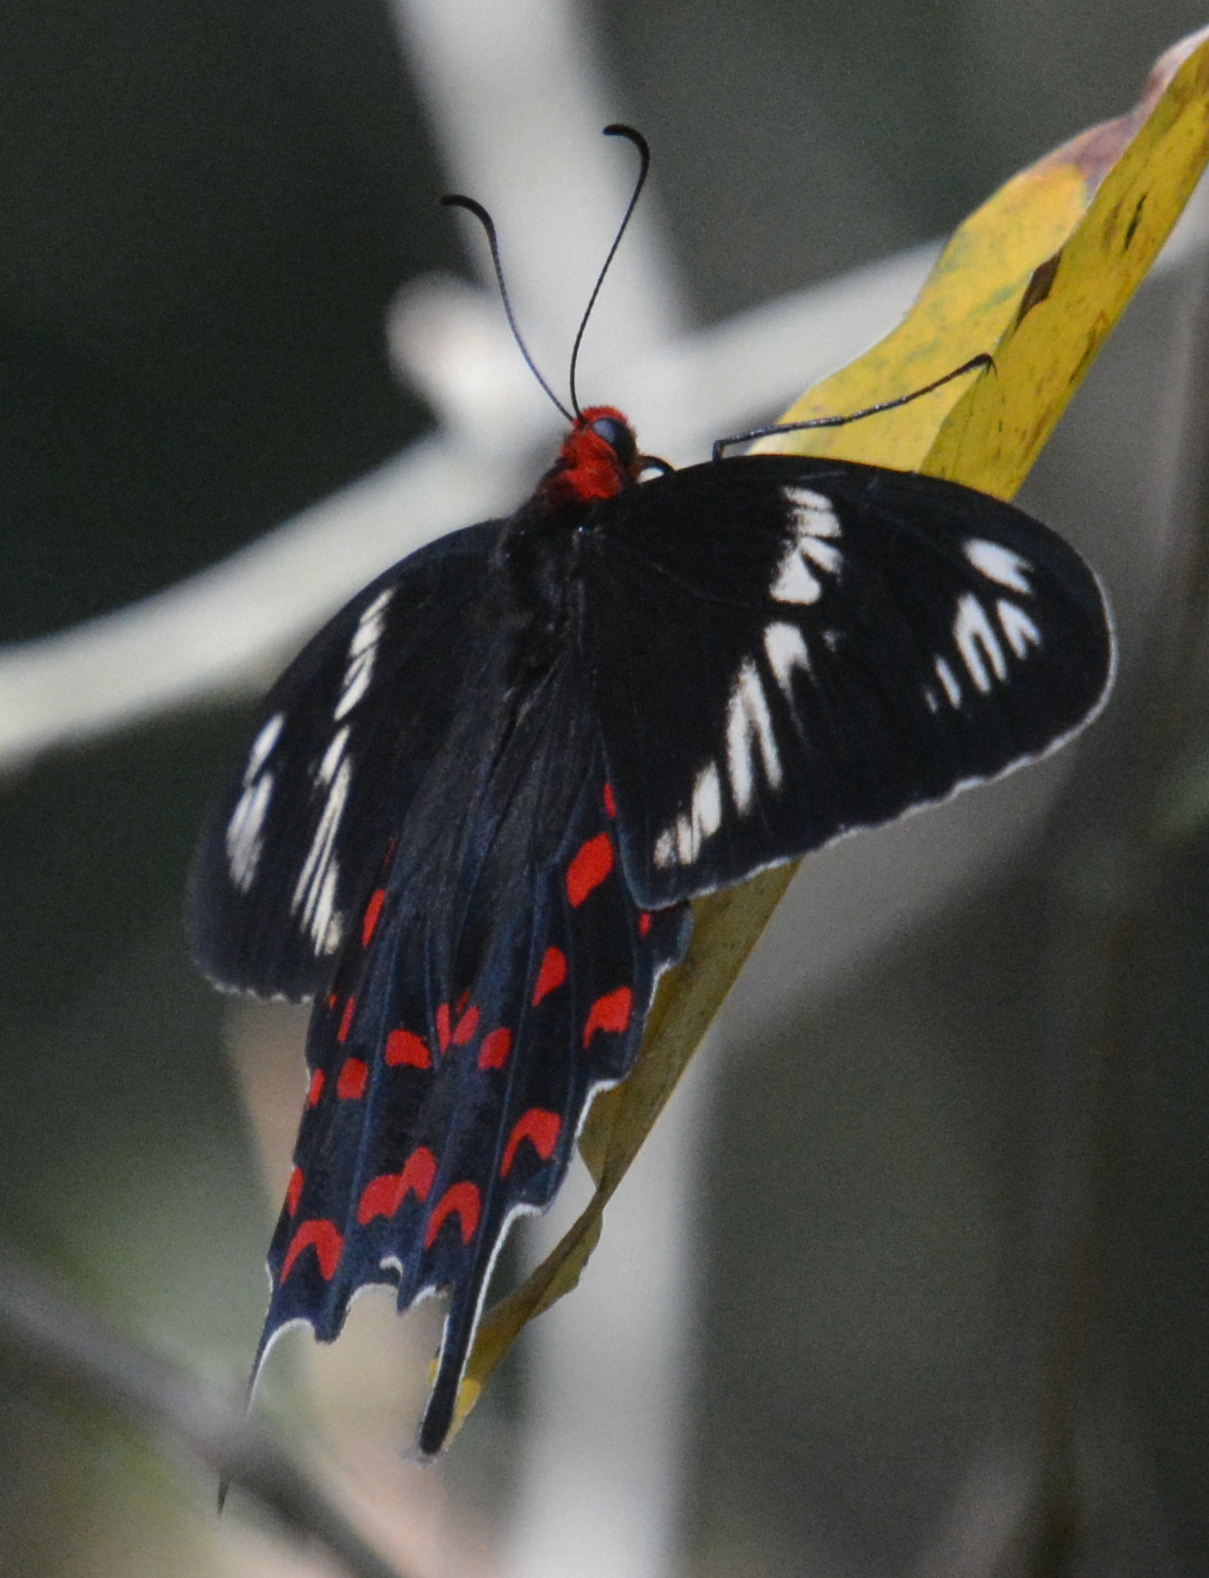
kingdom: Animalia
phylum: Arthropoda
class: Insecta
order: Lepidoptera
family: Papilionidae
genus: Pachliopta
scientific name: Pachliopta hector
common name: Crimson rose
